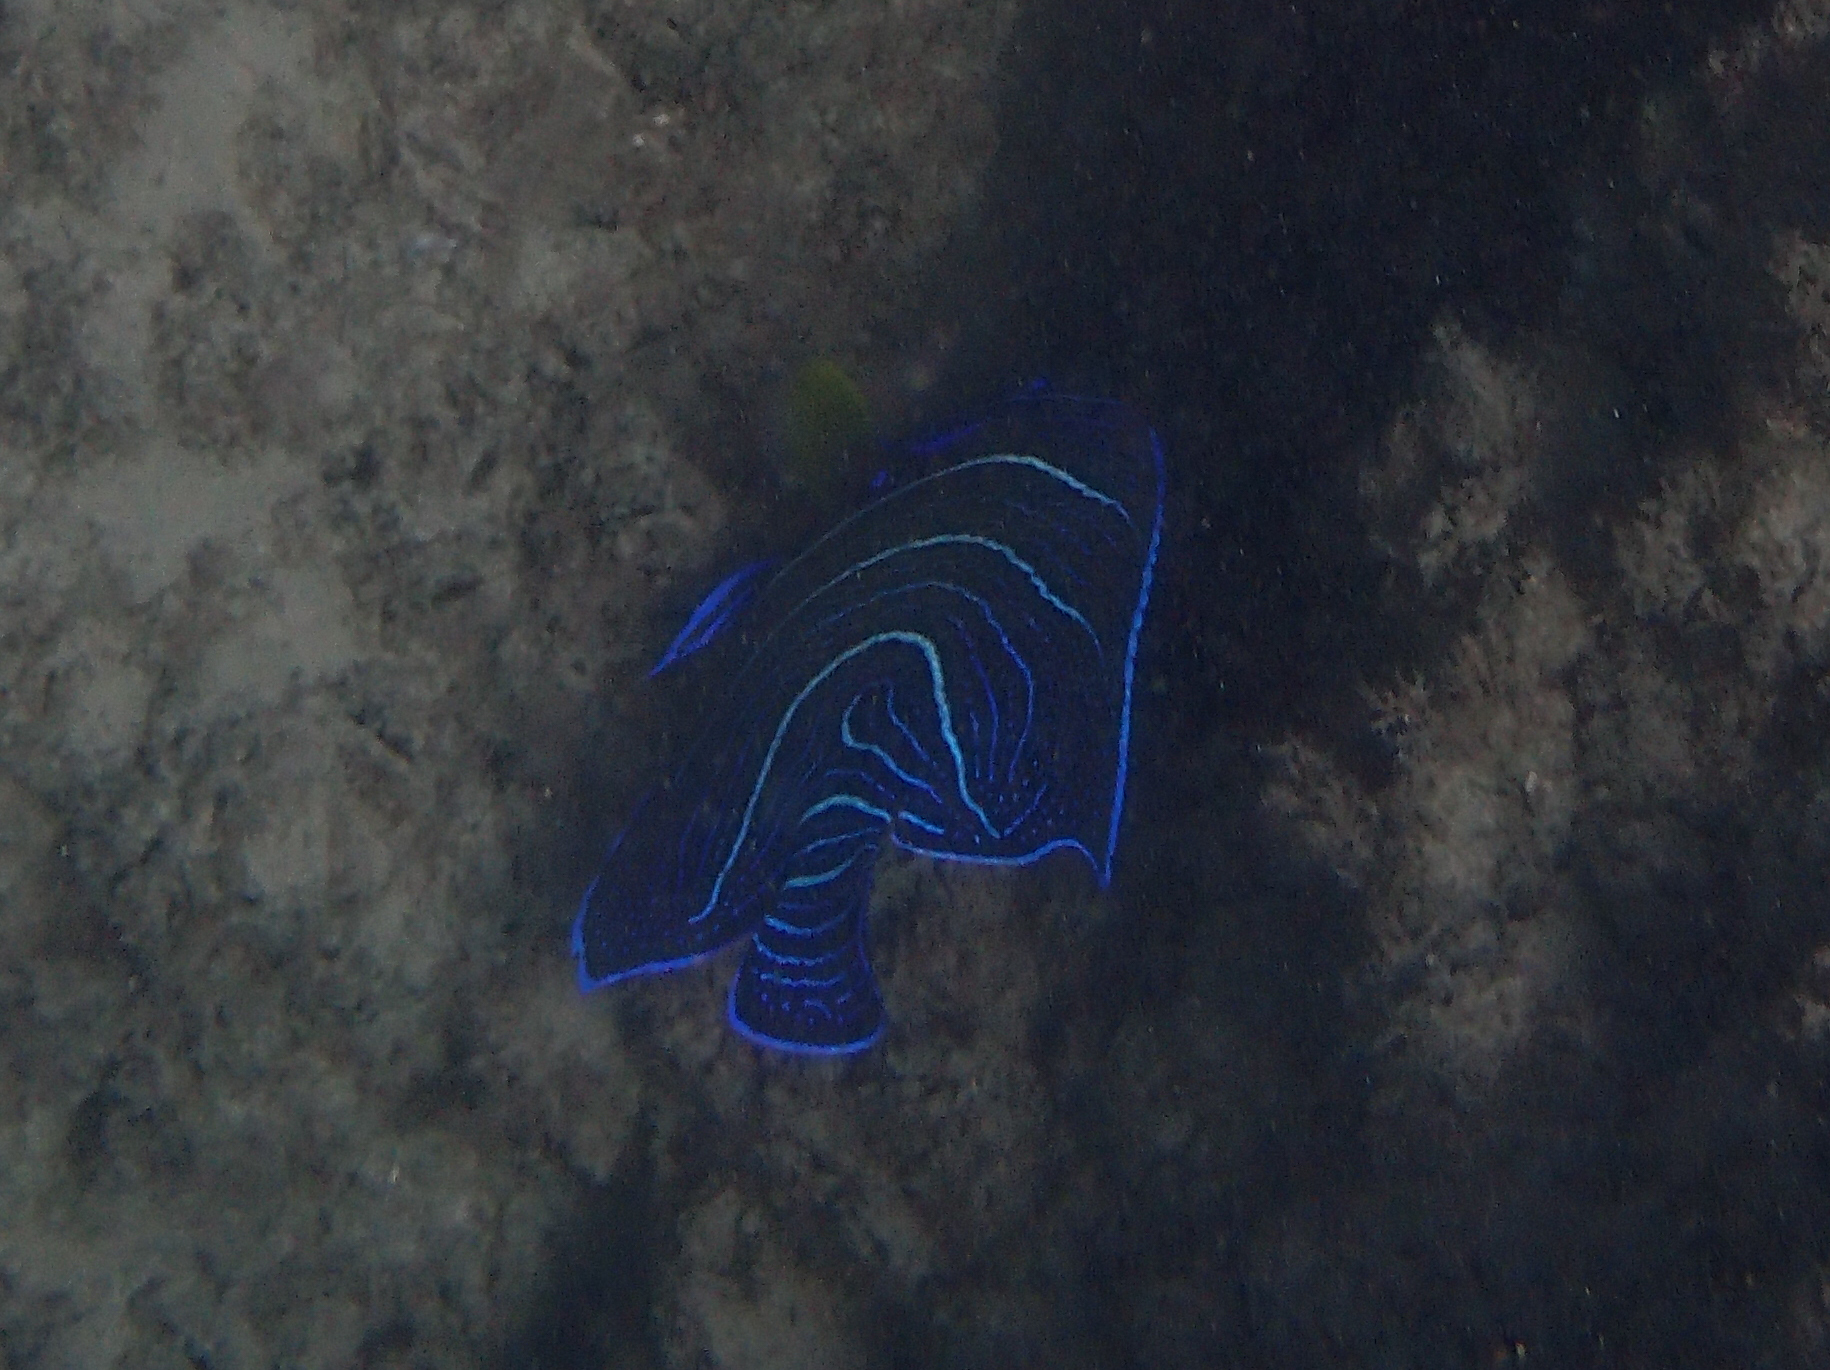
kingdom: Animalia
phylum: Chordata
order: Perciformes
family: Pomacanthidae
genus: Pomacanthus
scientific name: Pomacanthus semicirculatus
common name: Semicircle angelfish
